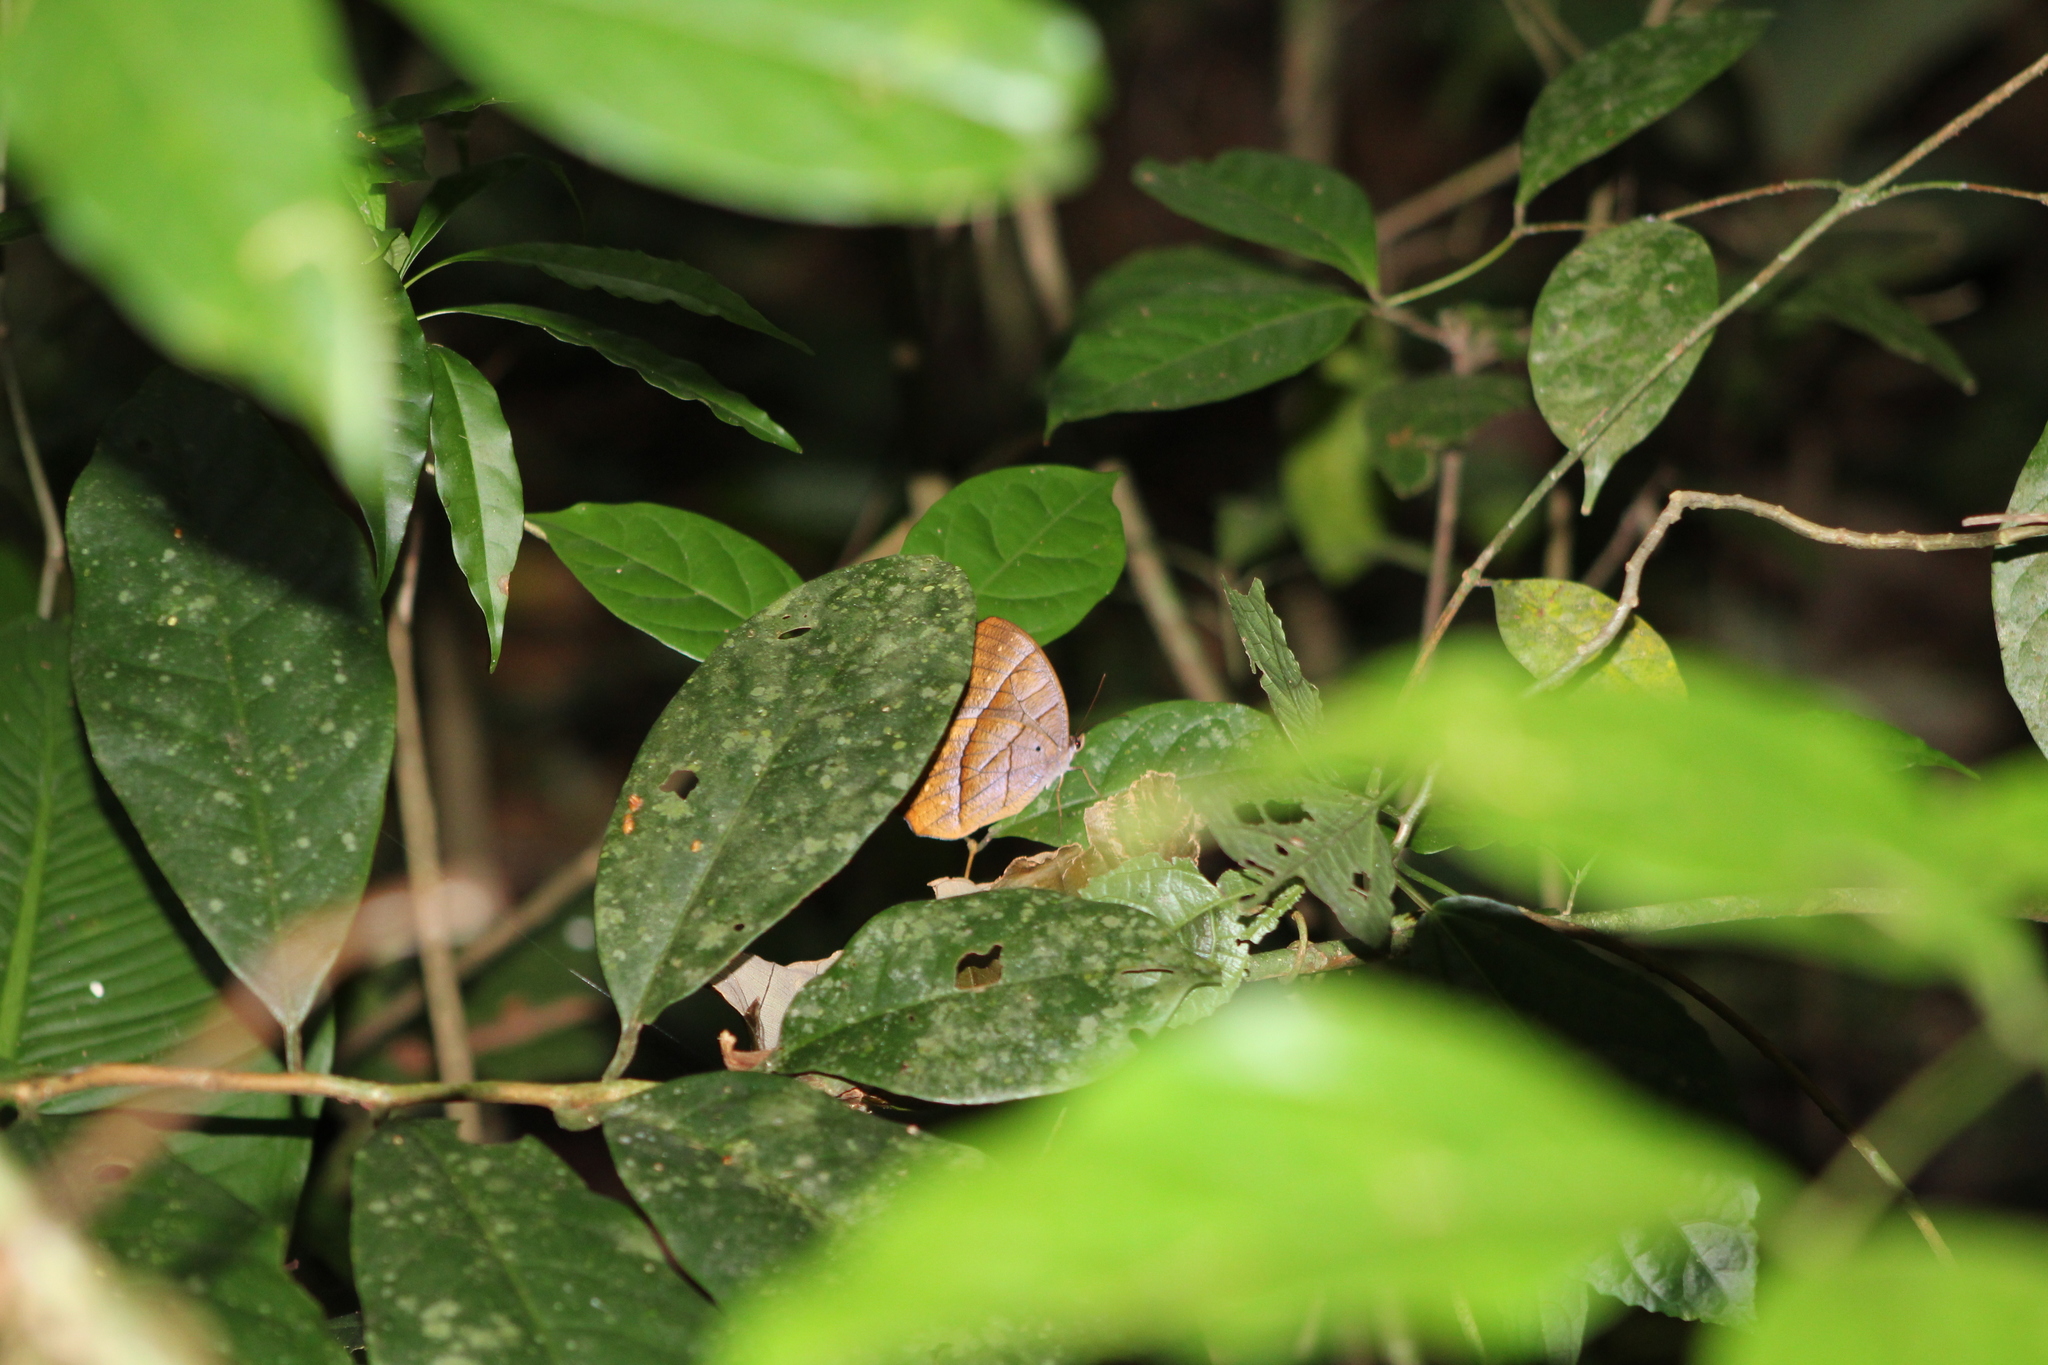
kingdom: Animalia
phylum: Arthropoda
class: Insecta
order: Lepidoptera
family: Nymphalidae
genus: Antirrhea
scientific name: Antirrhea pterocopha
